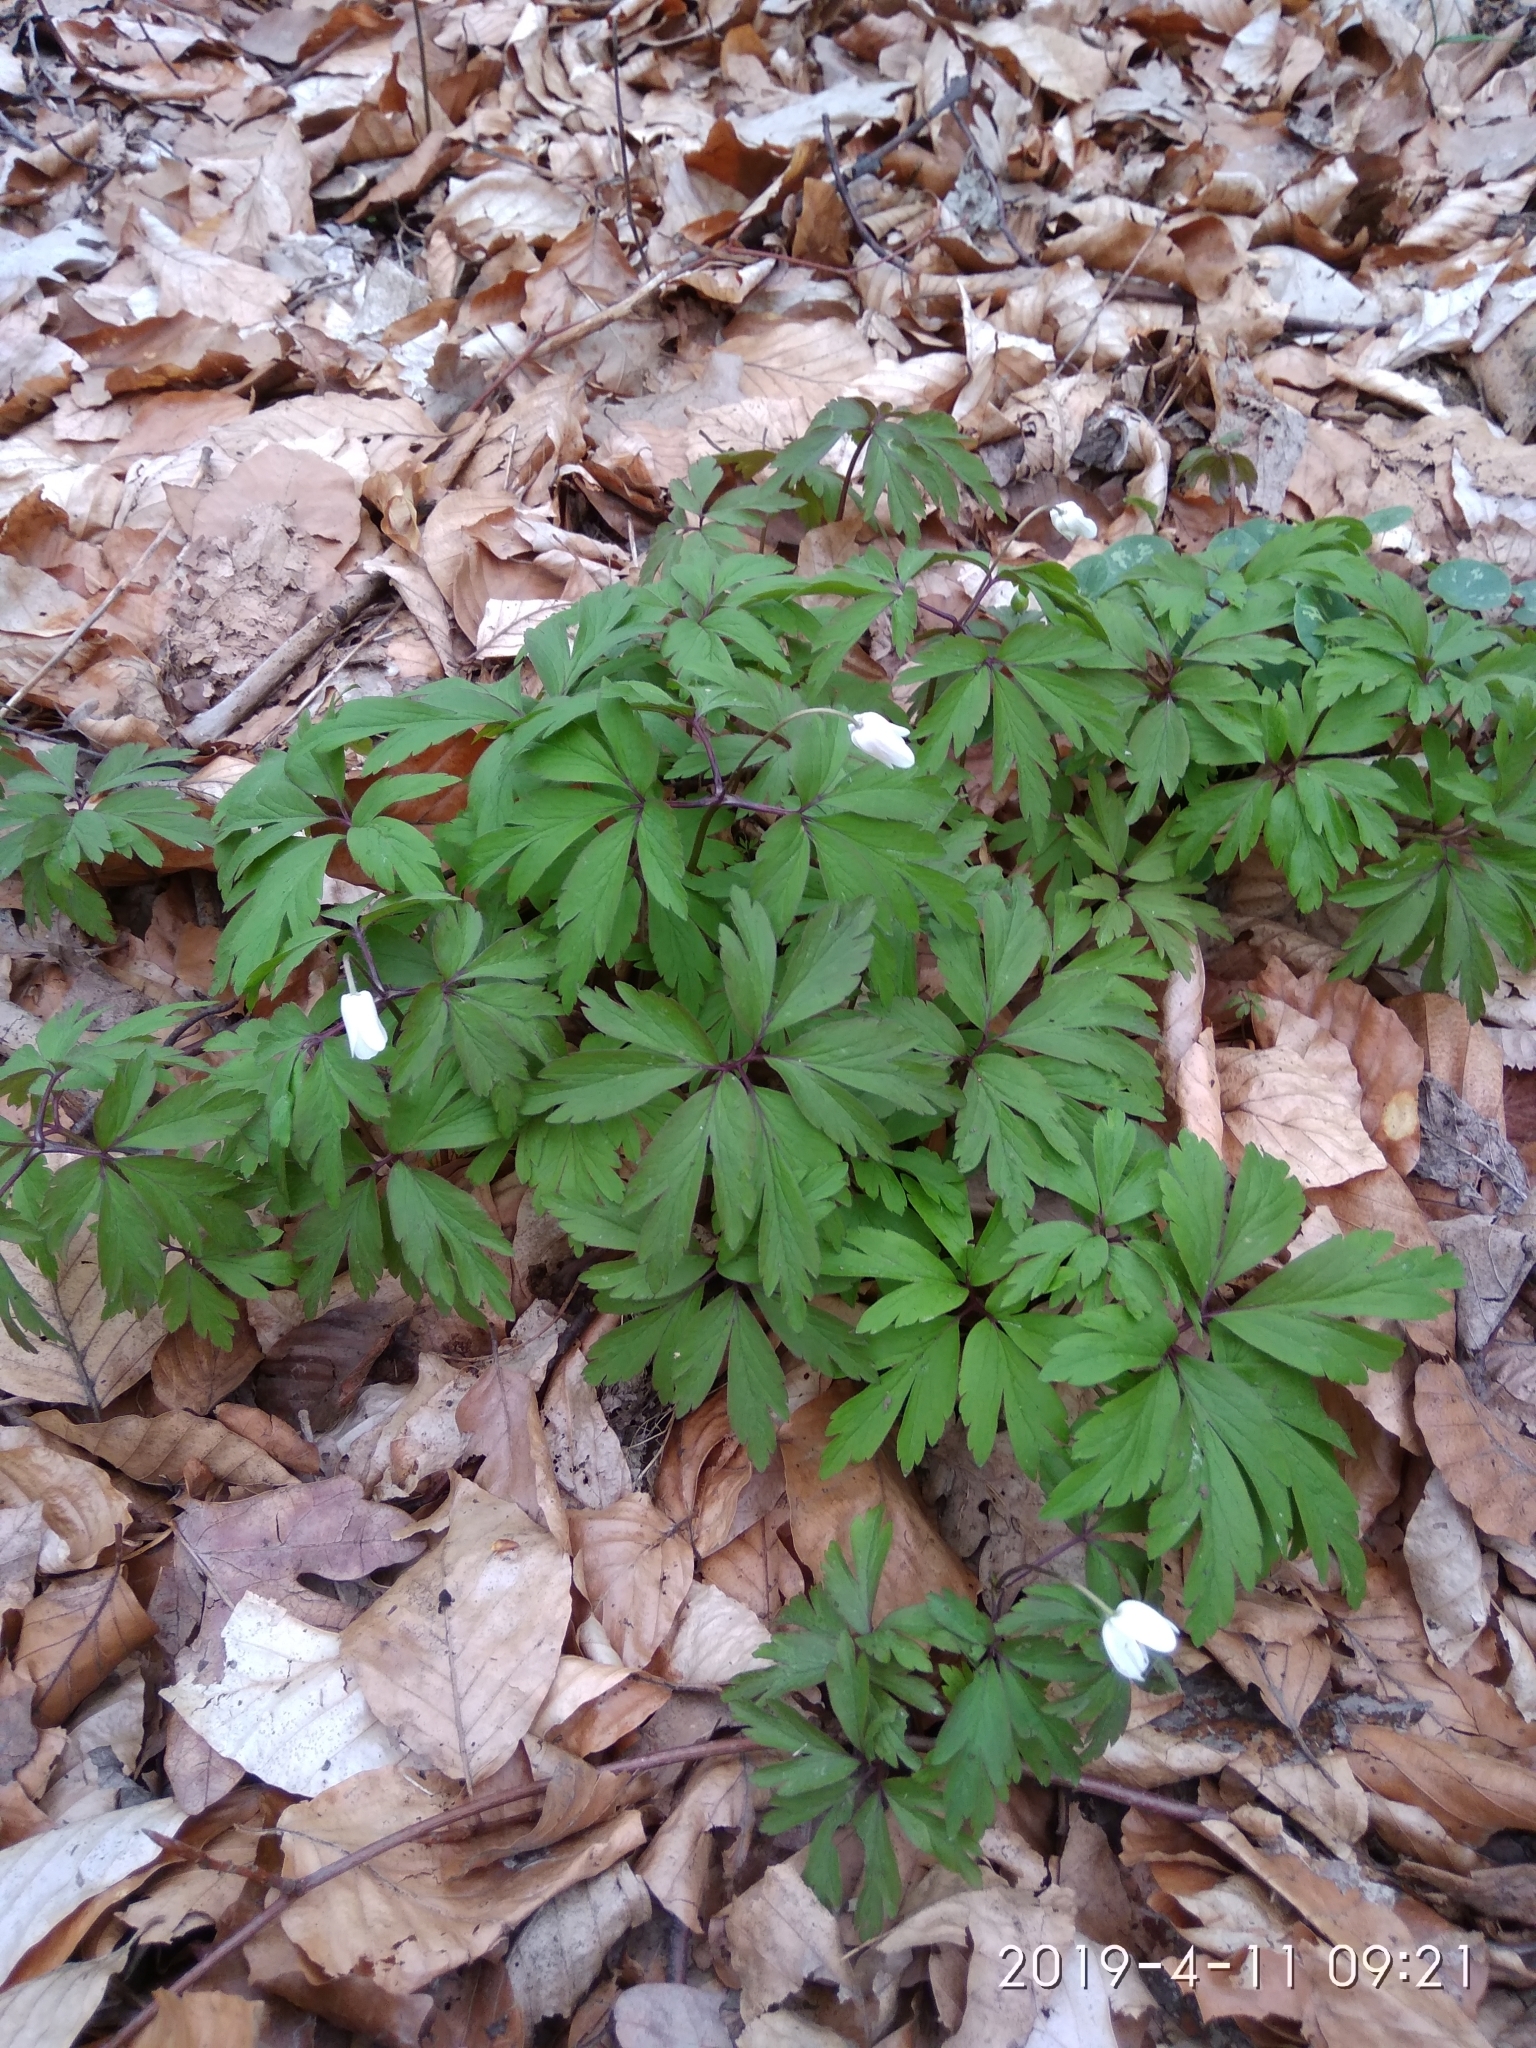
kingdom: Plantae
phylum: Tracheophyta
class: Magnoliopsida
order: Ranunculales
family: Ranunculaceae
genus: Anemone
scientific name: Anemone nemorosa
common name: Wood anemone
